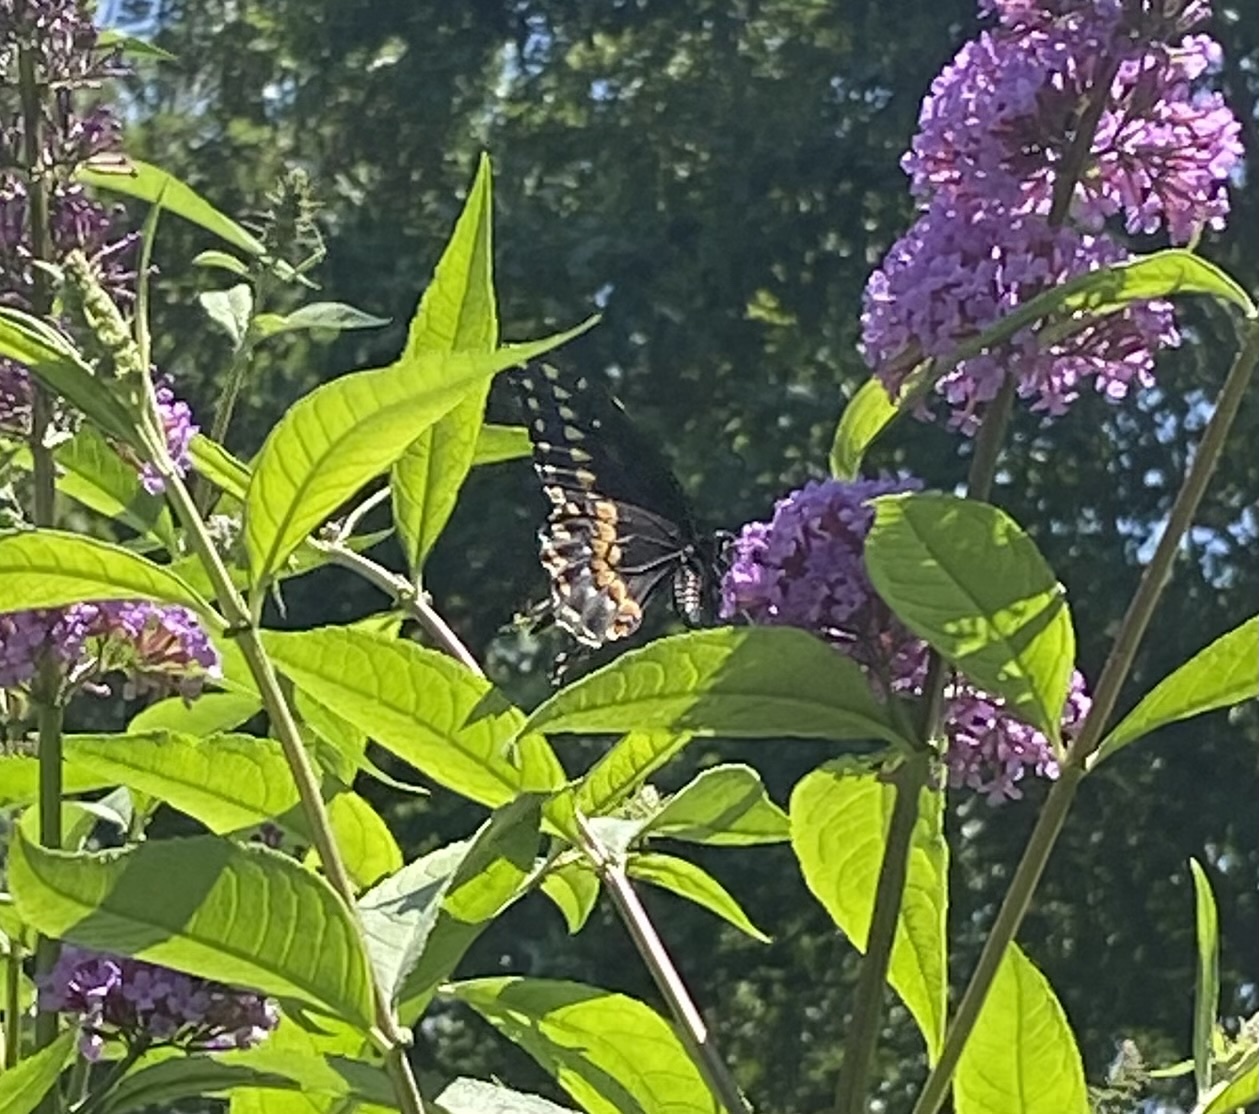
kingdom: Animalia
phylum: Arthropoda
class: Insecta
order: Lepidoptera
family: Papilionidae
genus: Papilio
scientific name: Papilio polyxenes
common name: Black swallowtail
